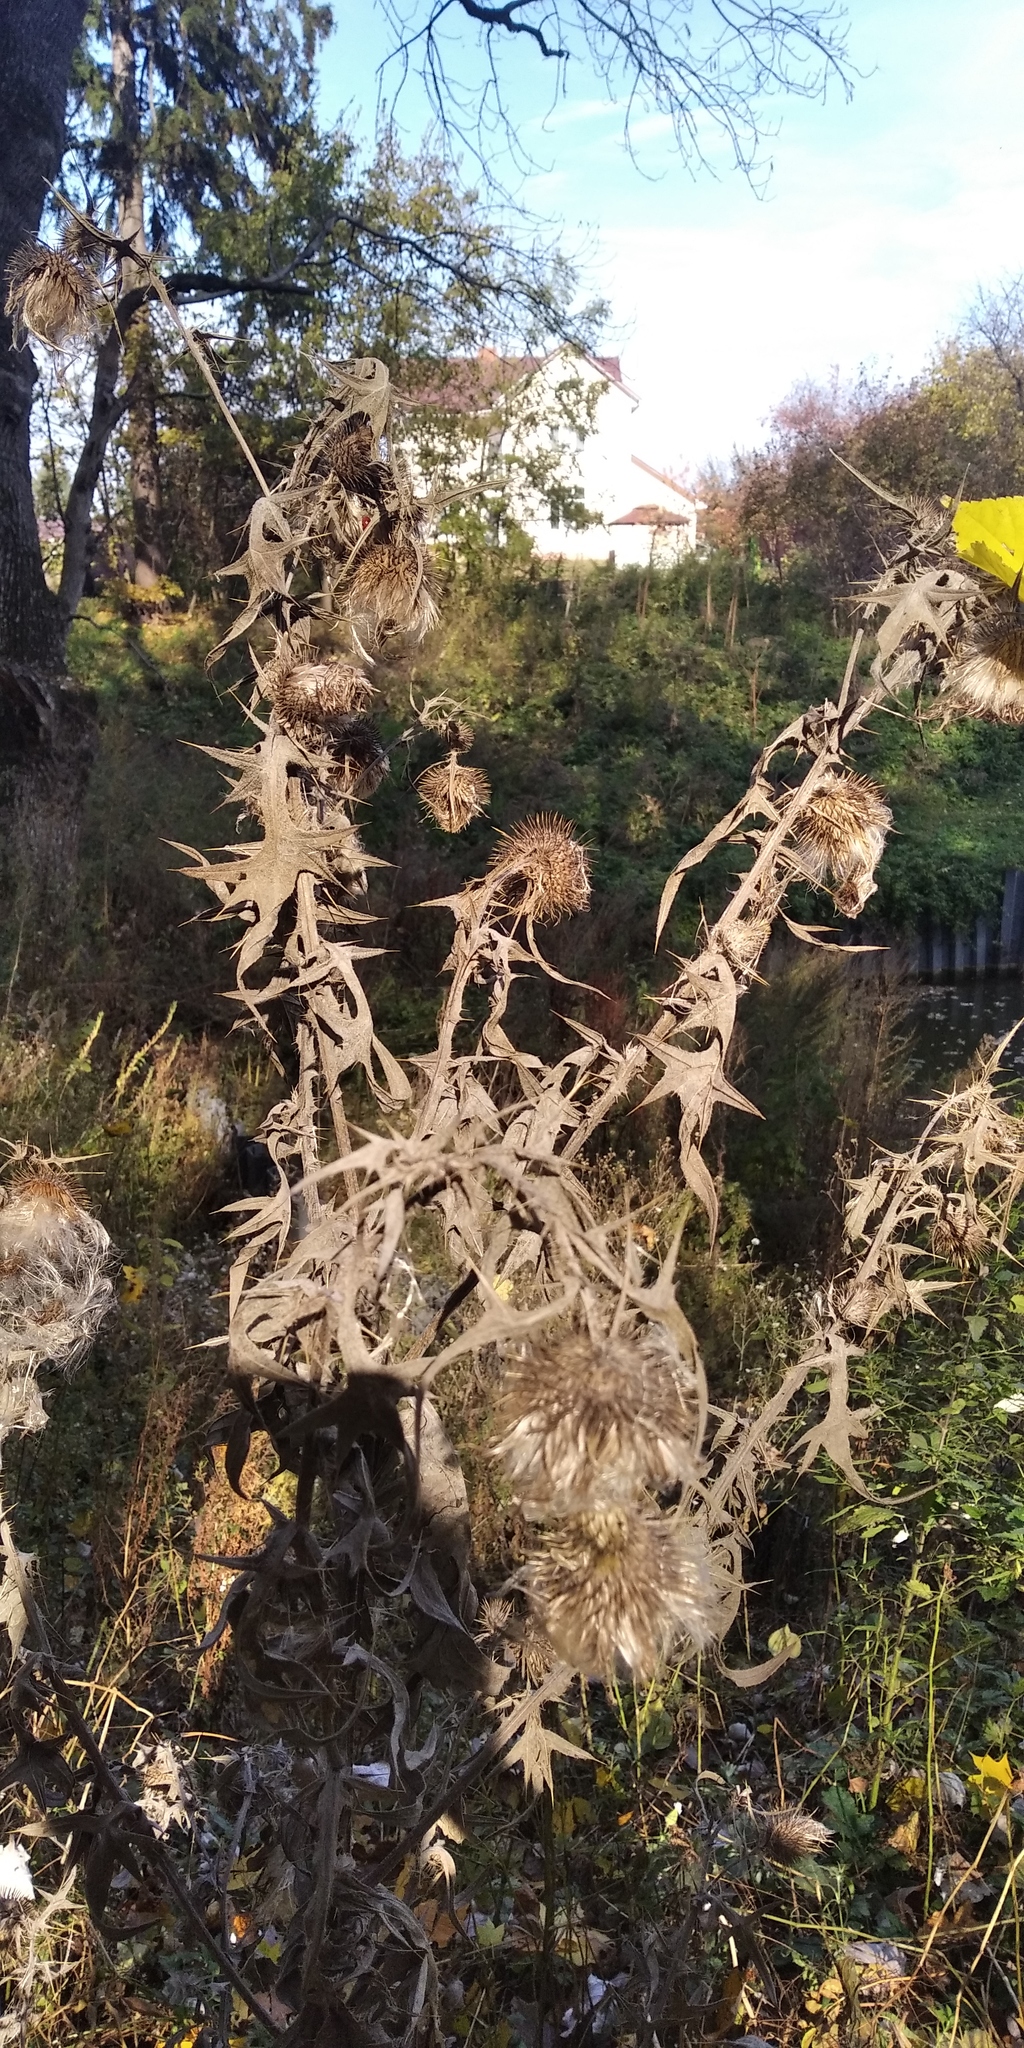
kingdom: Plantae
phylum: Tracheophyta
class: Magnoliopsida
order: Asterales
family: Asteraceae
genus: Cirsium
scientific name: Cirsium vulgare
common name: Bull thistle
